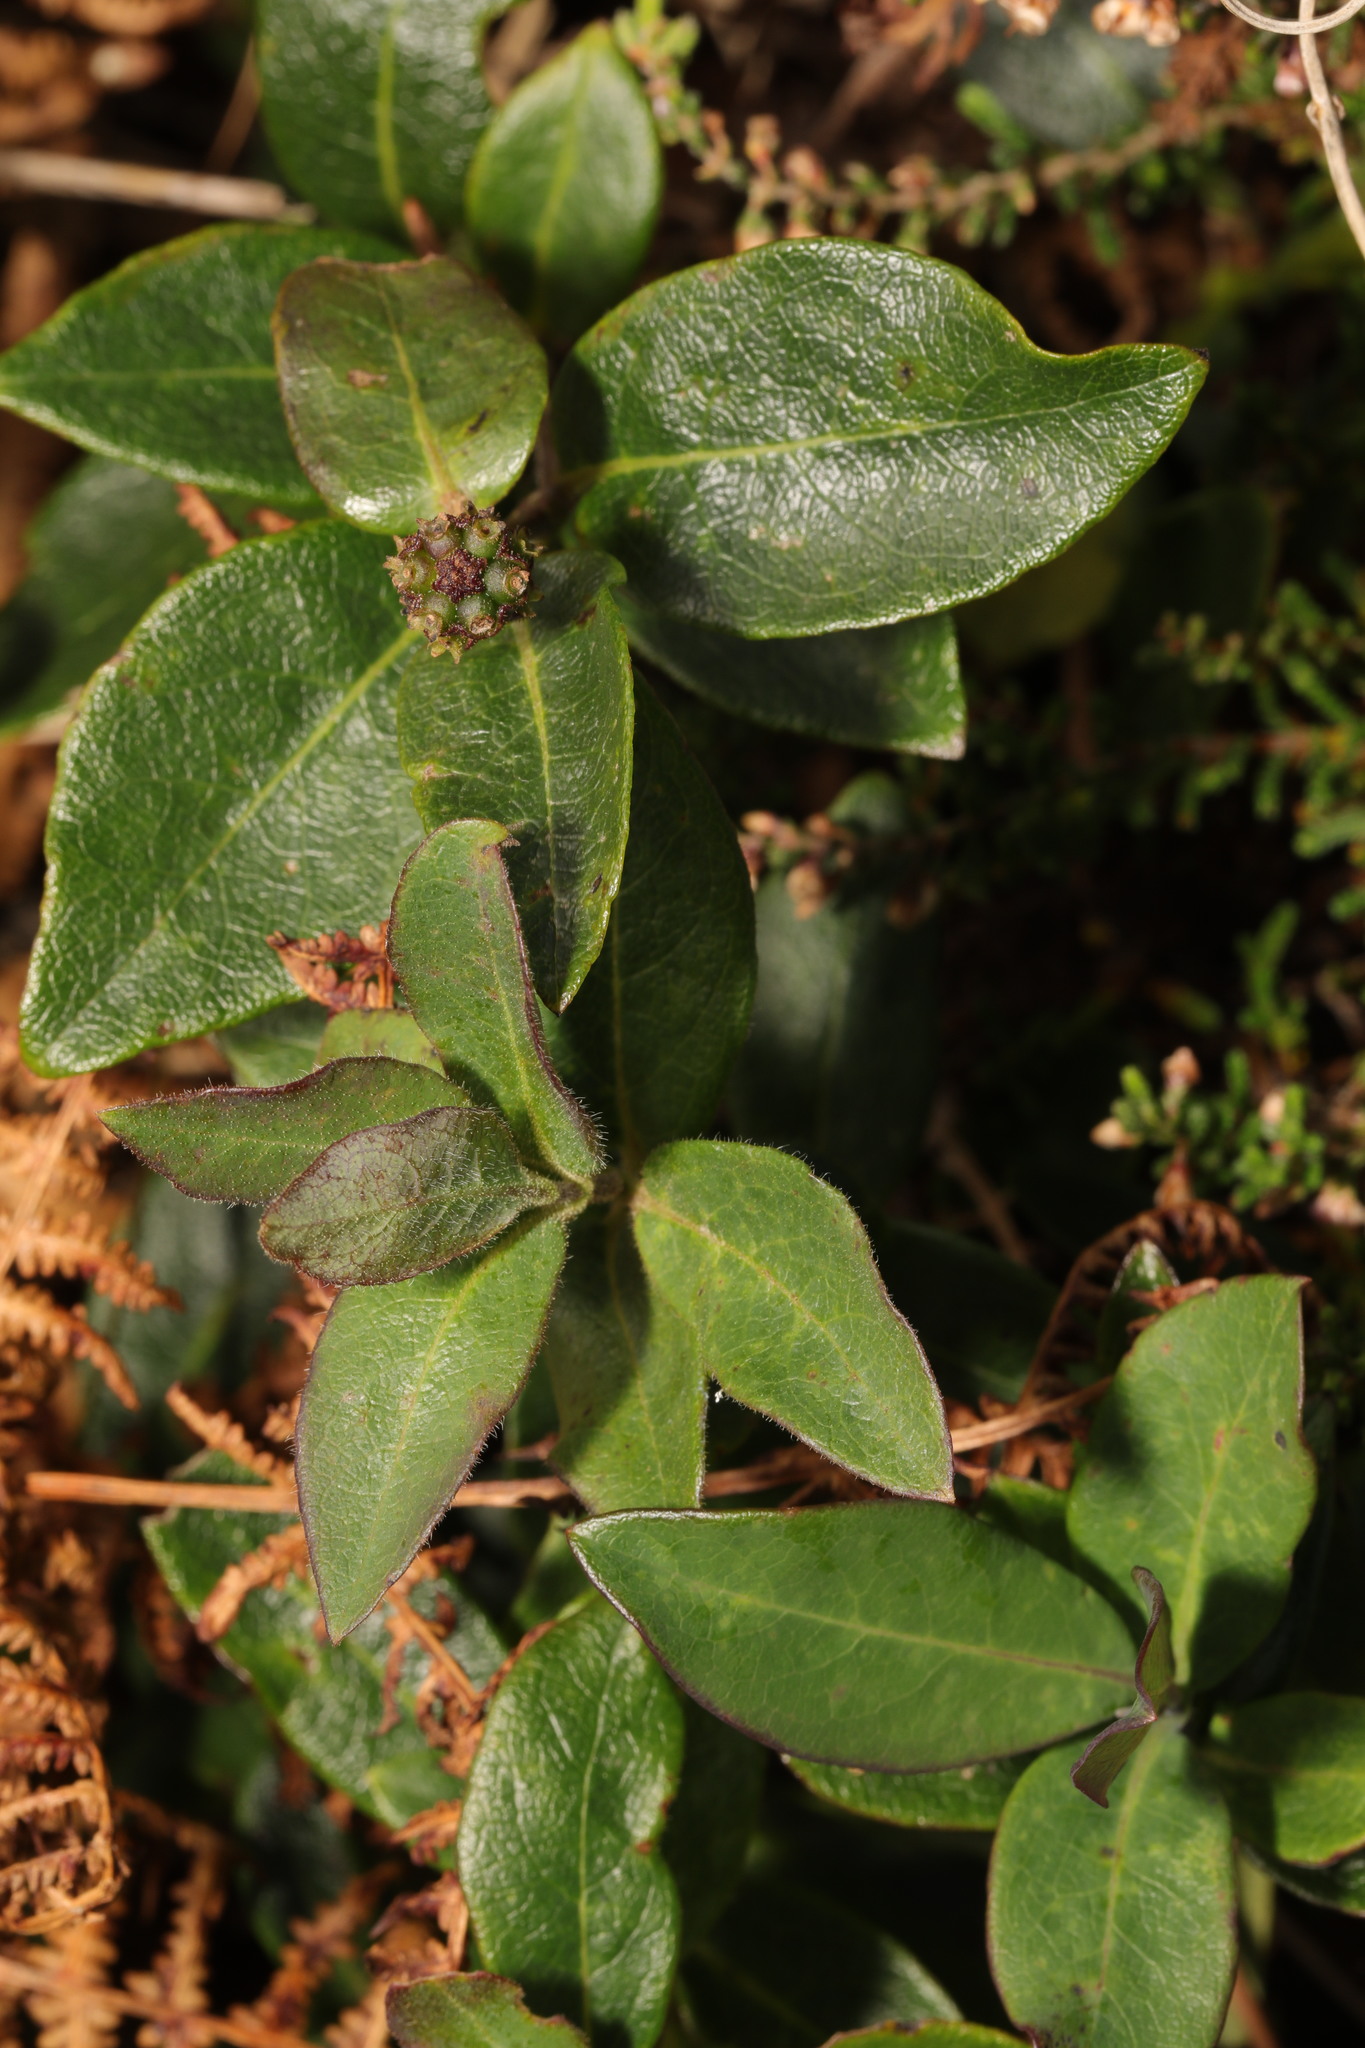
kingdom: Plantae
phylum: Tracheophyta
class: Magnoliopsida
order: Dipsacales
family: Caprifoliaceae
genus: Lonicera
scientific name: Lonicera periclymenum
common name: European honeysuckle
